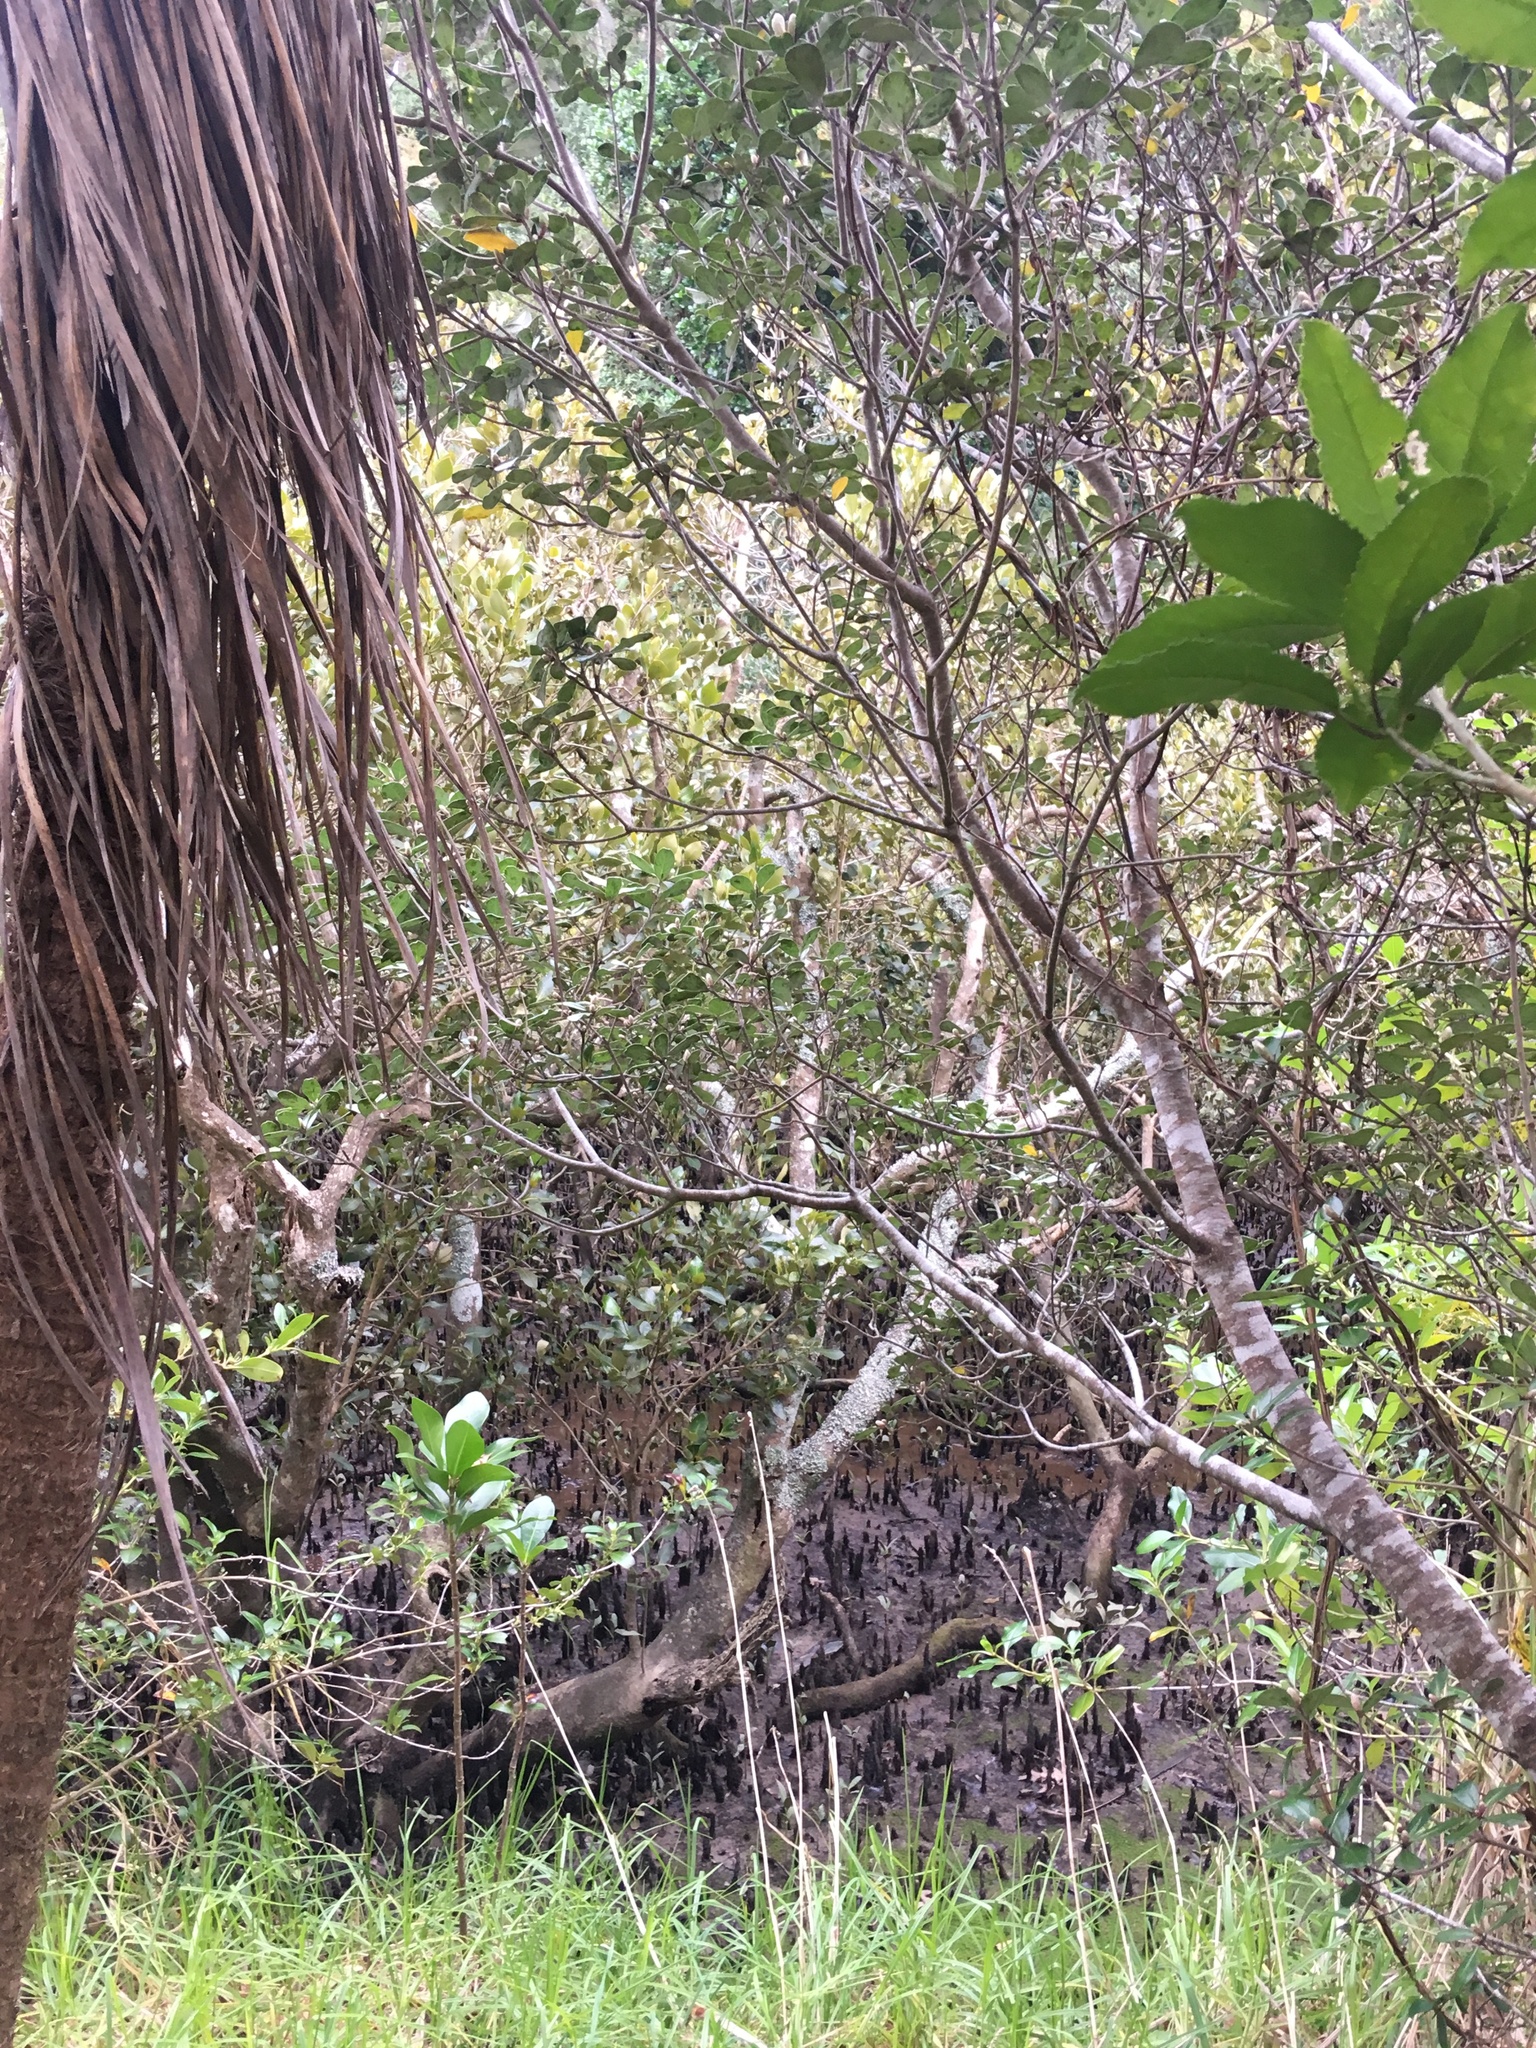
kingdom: Plantae
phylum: Tracheophyta
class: Magnoliopsida
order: Lamiales
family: Acanthaceae
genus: Avicennia
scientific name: Avicennia marina
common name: Gray mangrove
